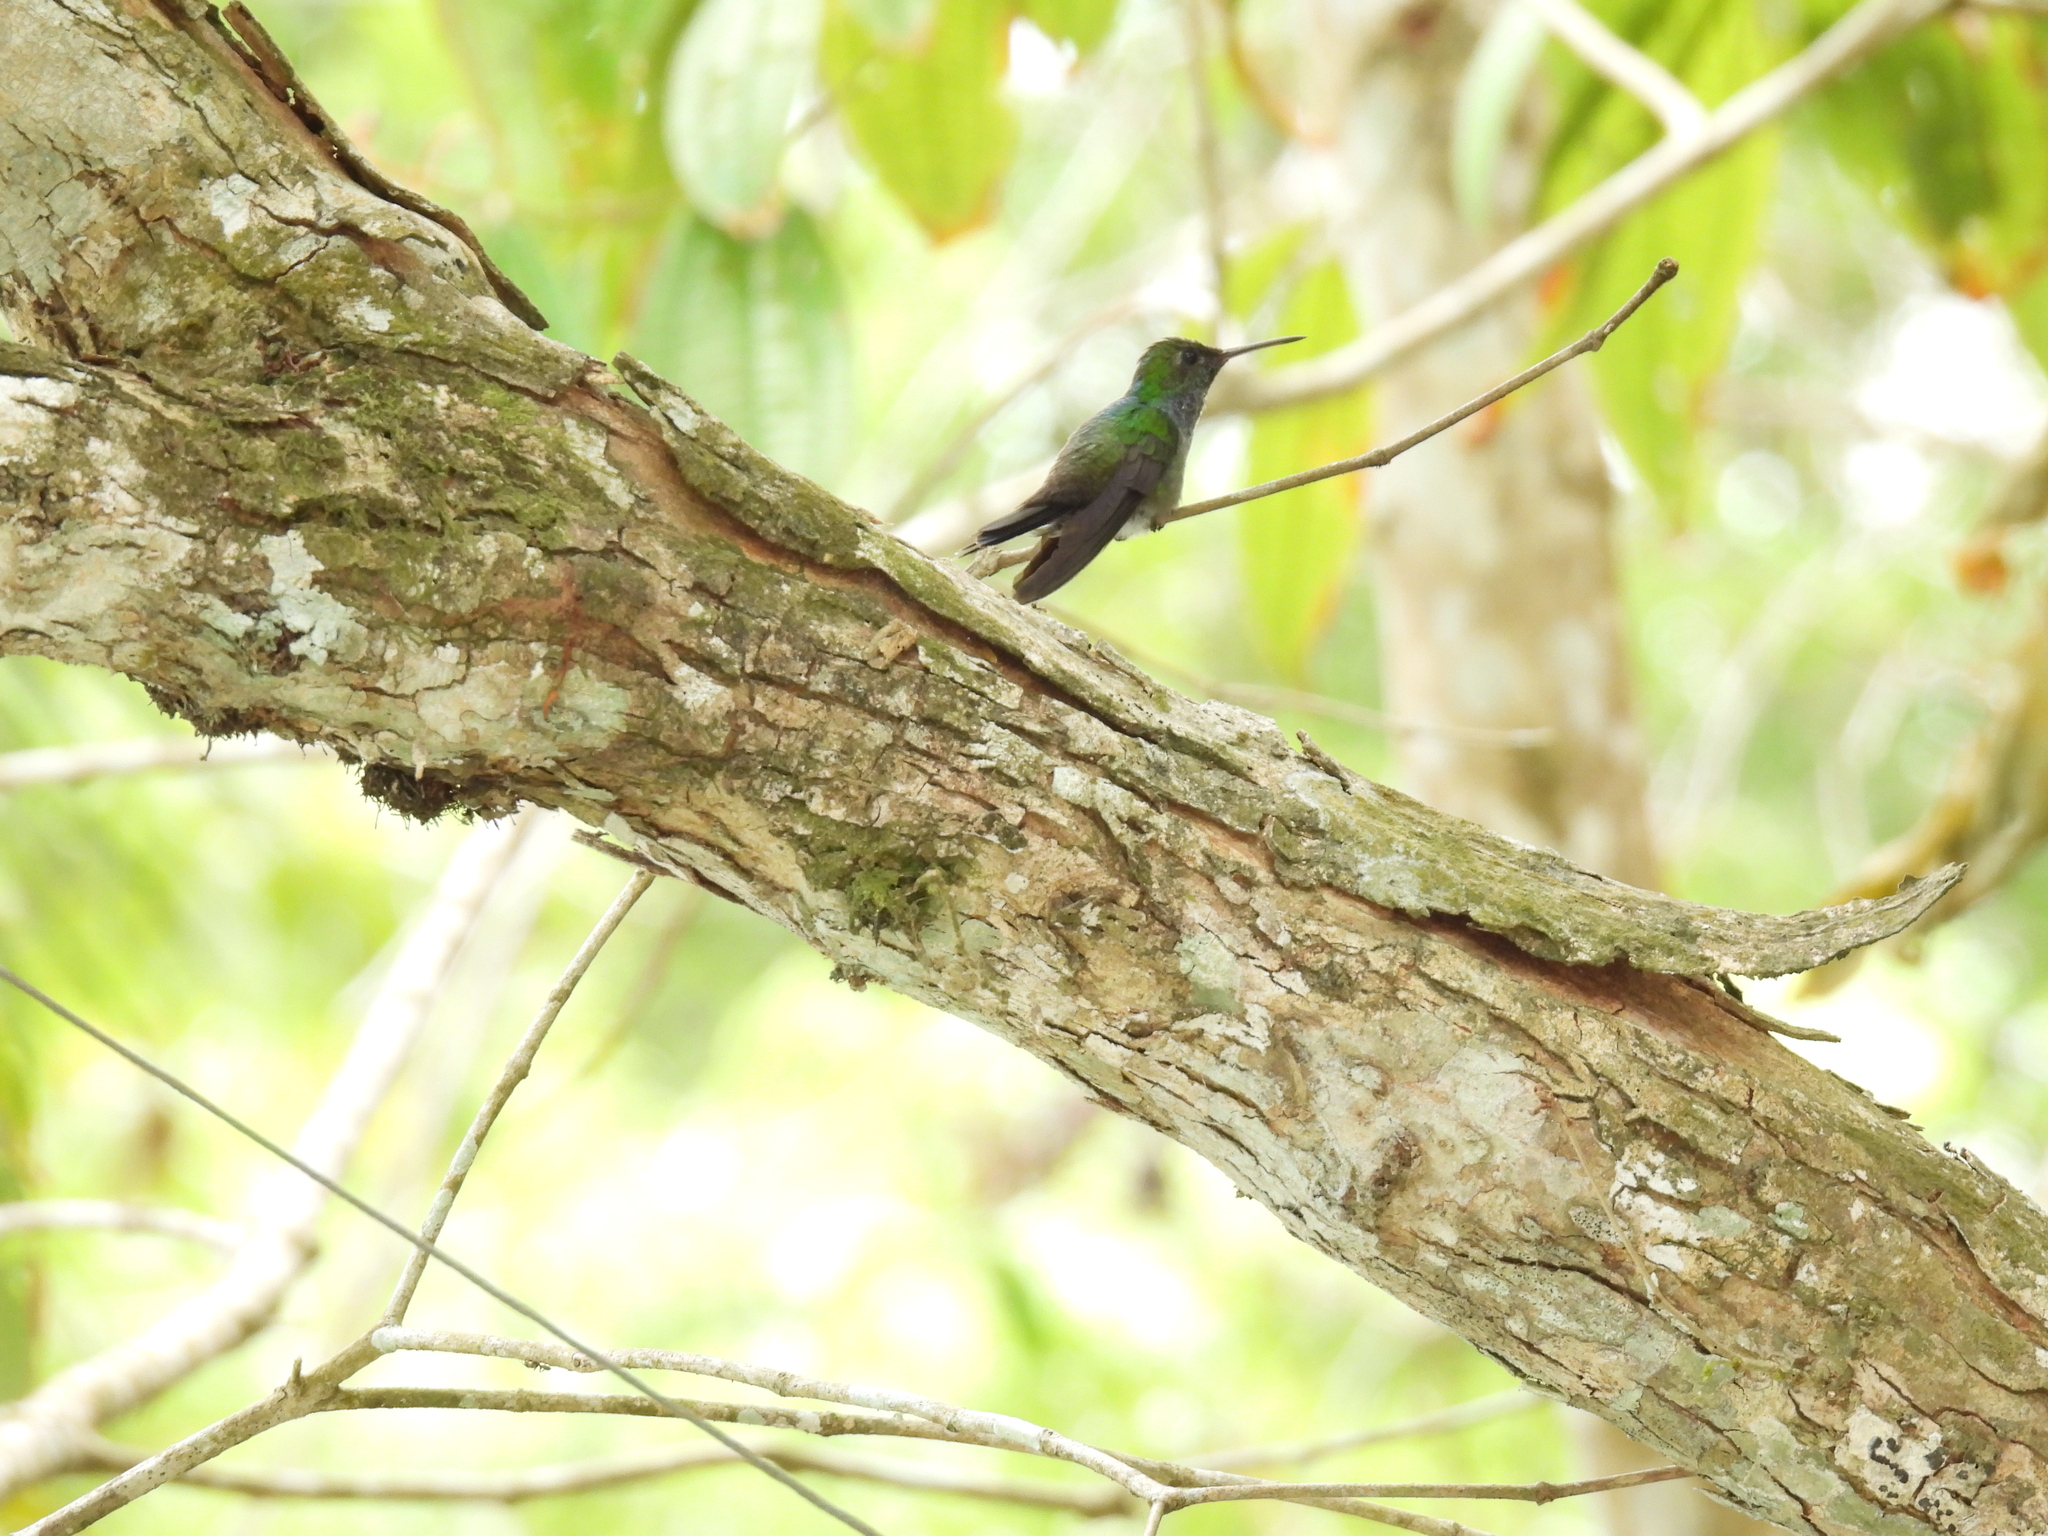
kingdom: Animalia
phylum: Chordata
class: Aves
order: Apodiformes
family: Trochilidae
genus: Polyerata
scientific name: Polyerata amabilis
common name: Blue-chested hummingbird
